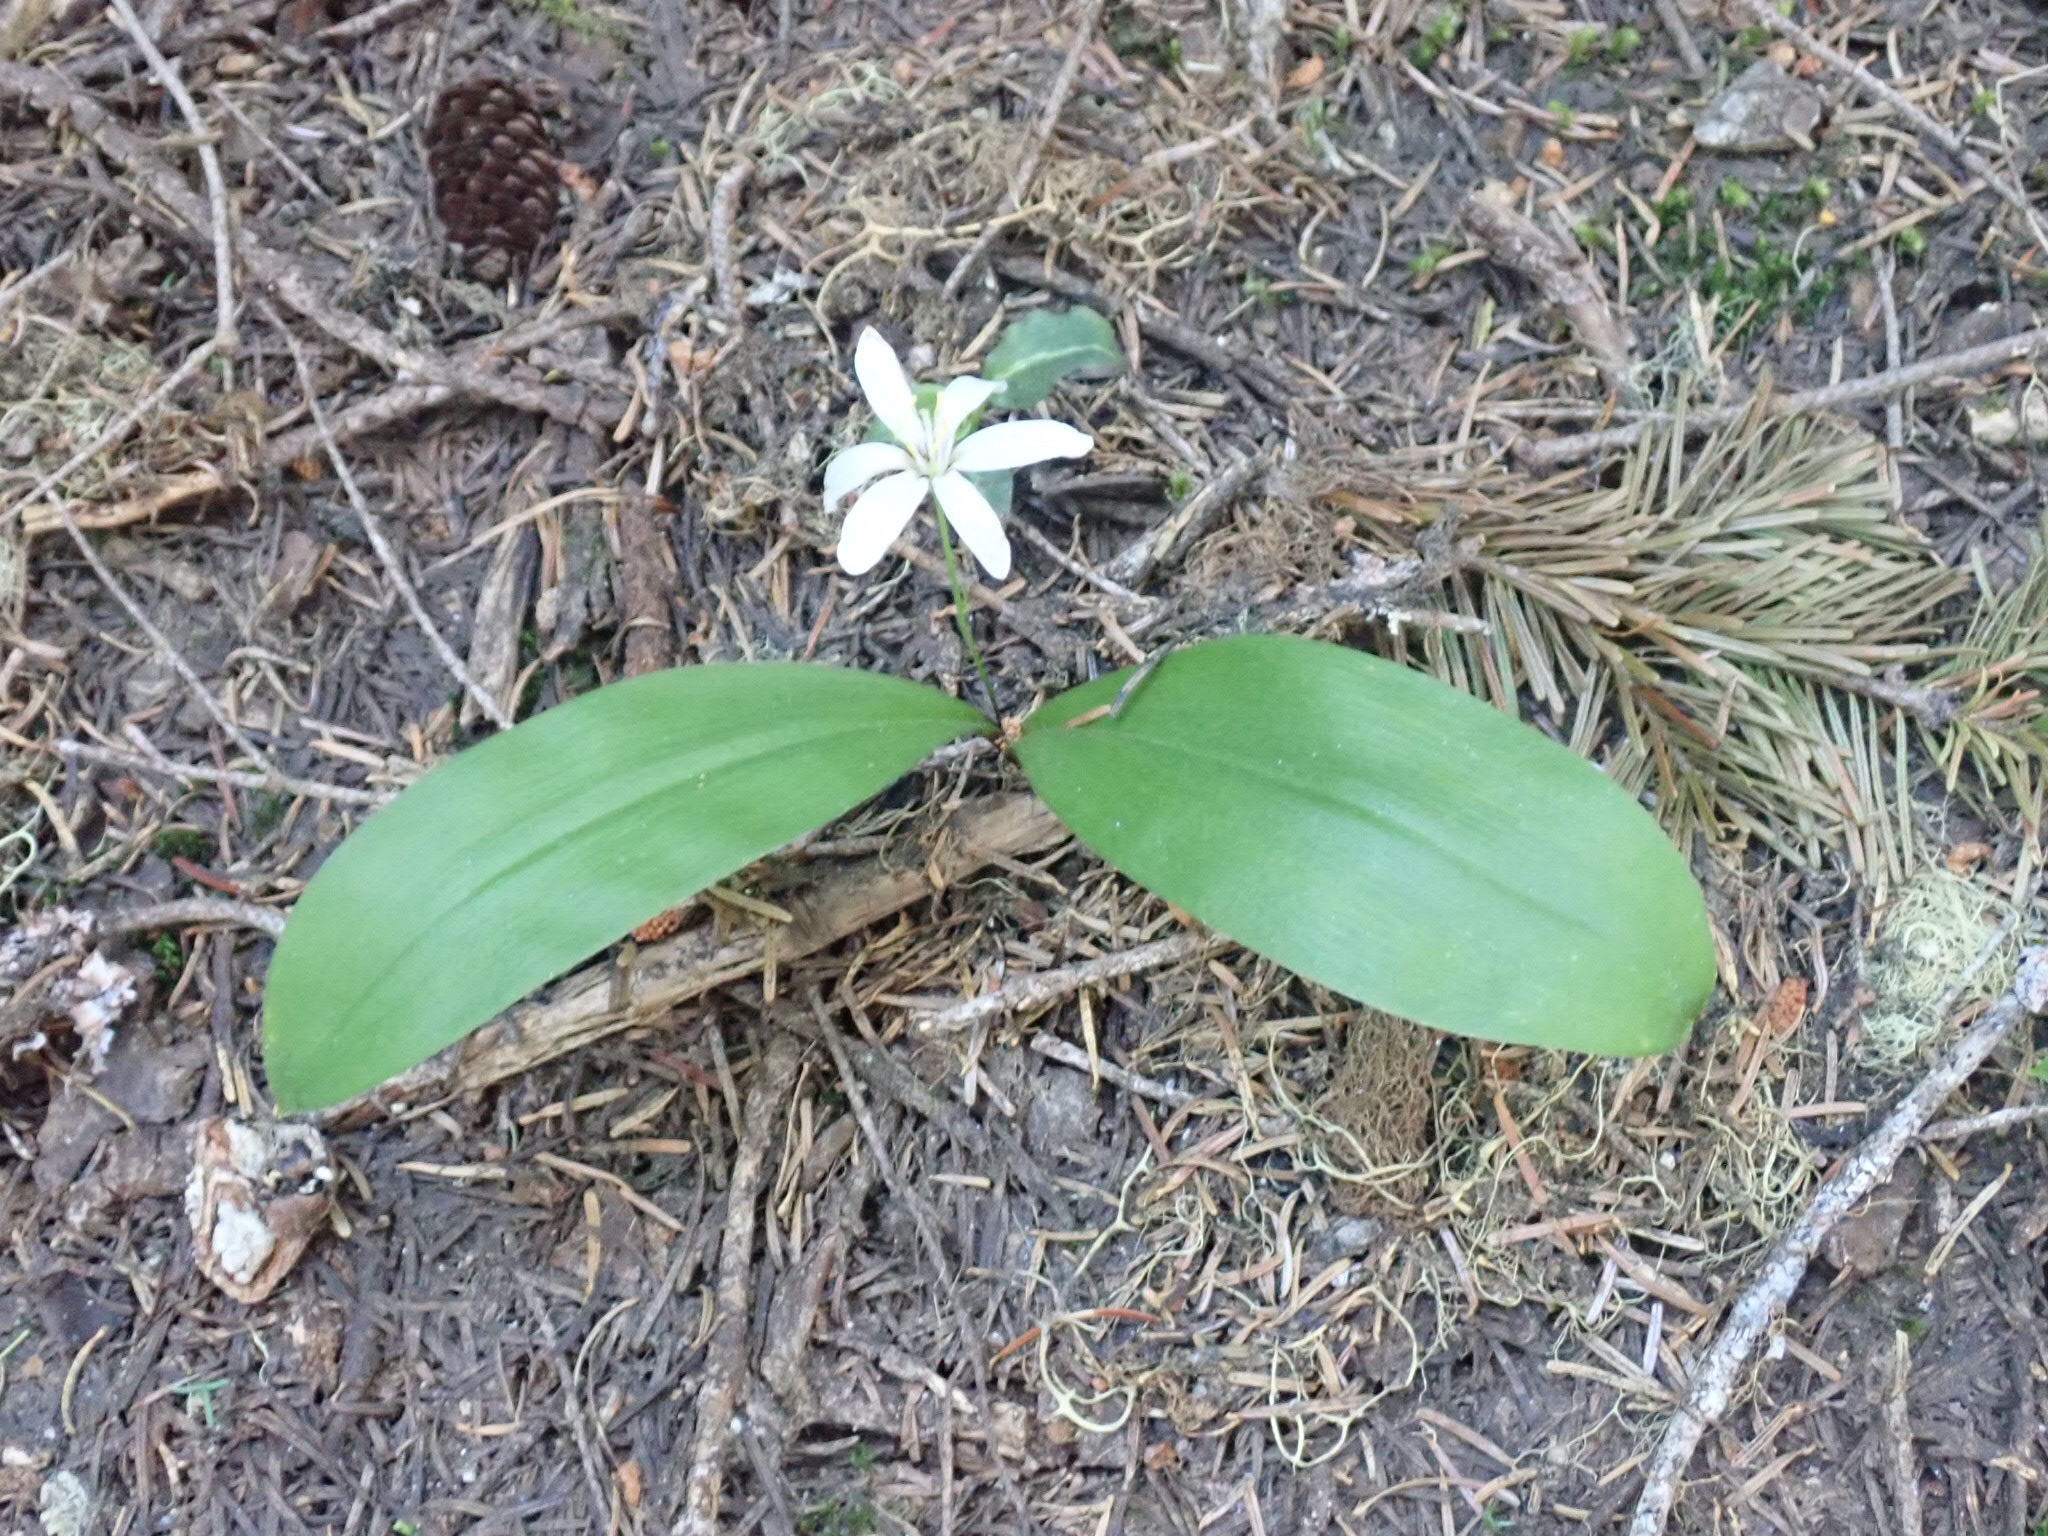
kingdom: Plantae
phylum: Tracheophyta
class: Liliopsida
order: Liliales
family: Liliaceae
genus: Clintonia
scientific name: Clintonia uniflora
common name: Queen's cup
